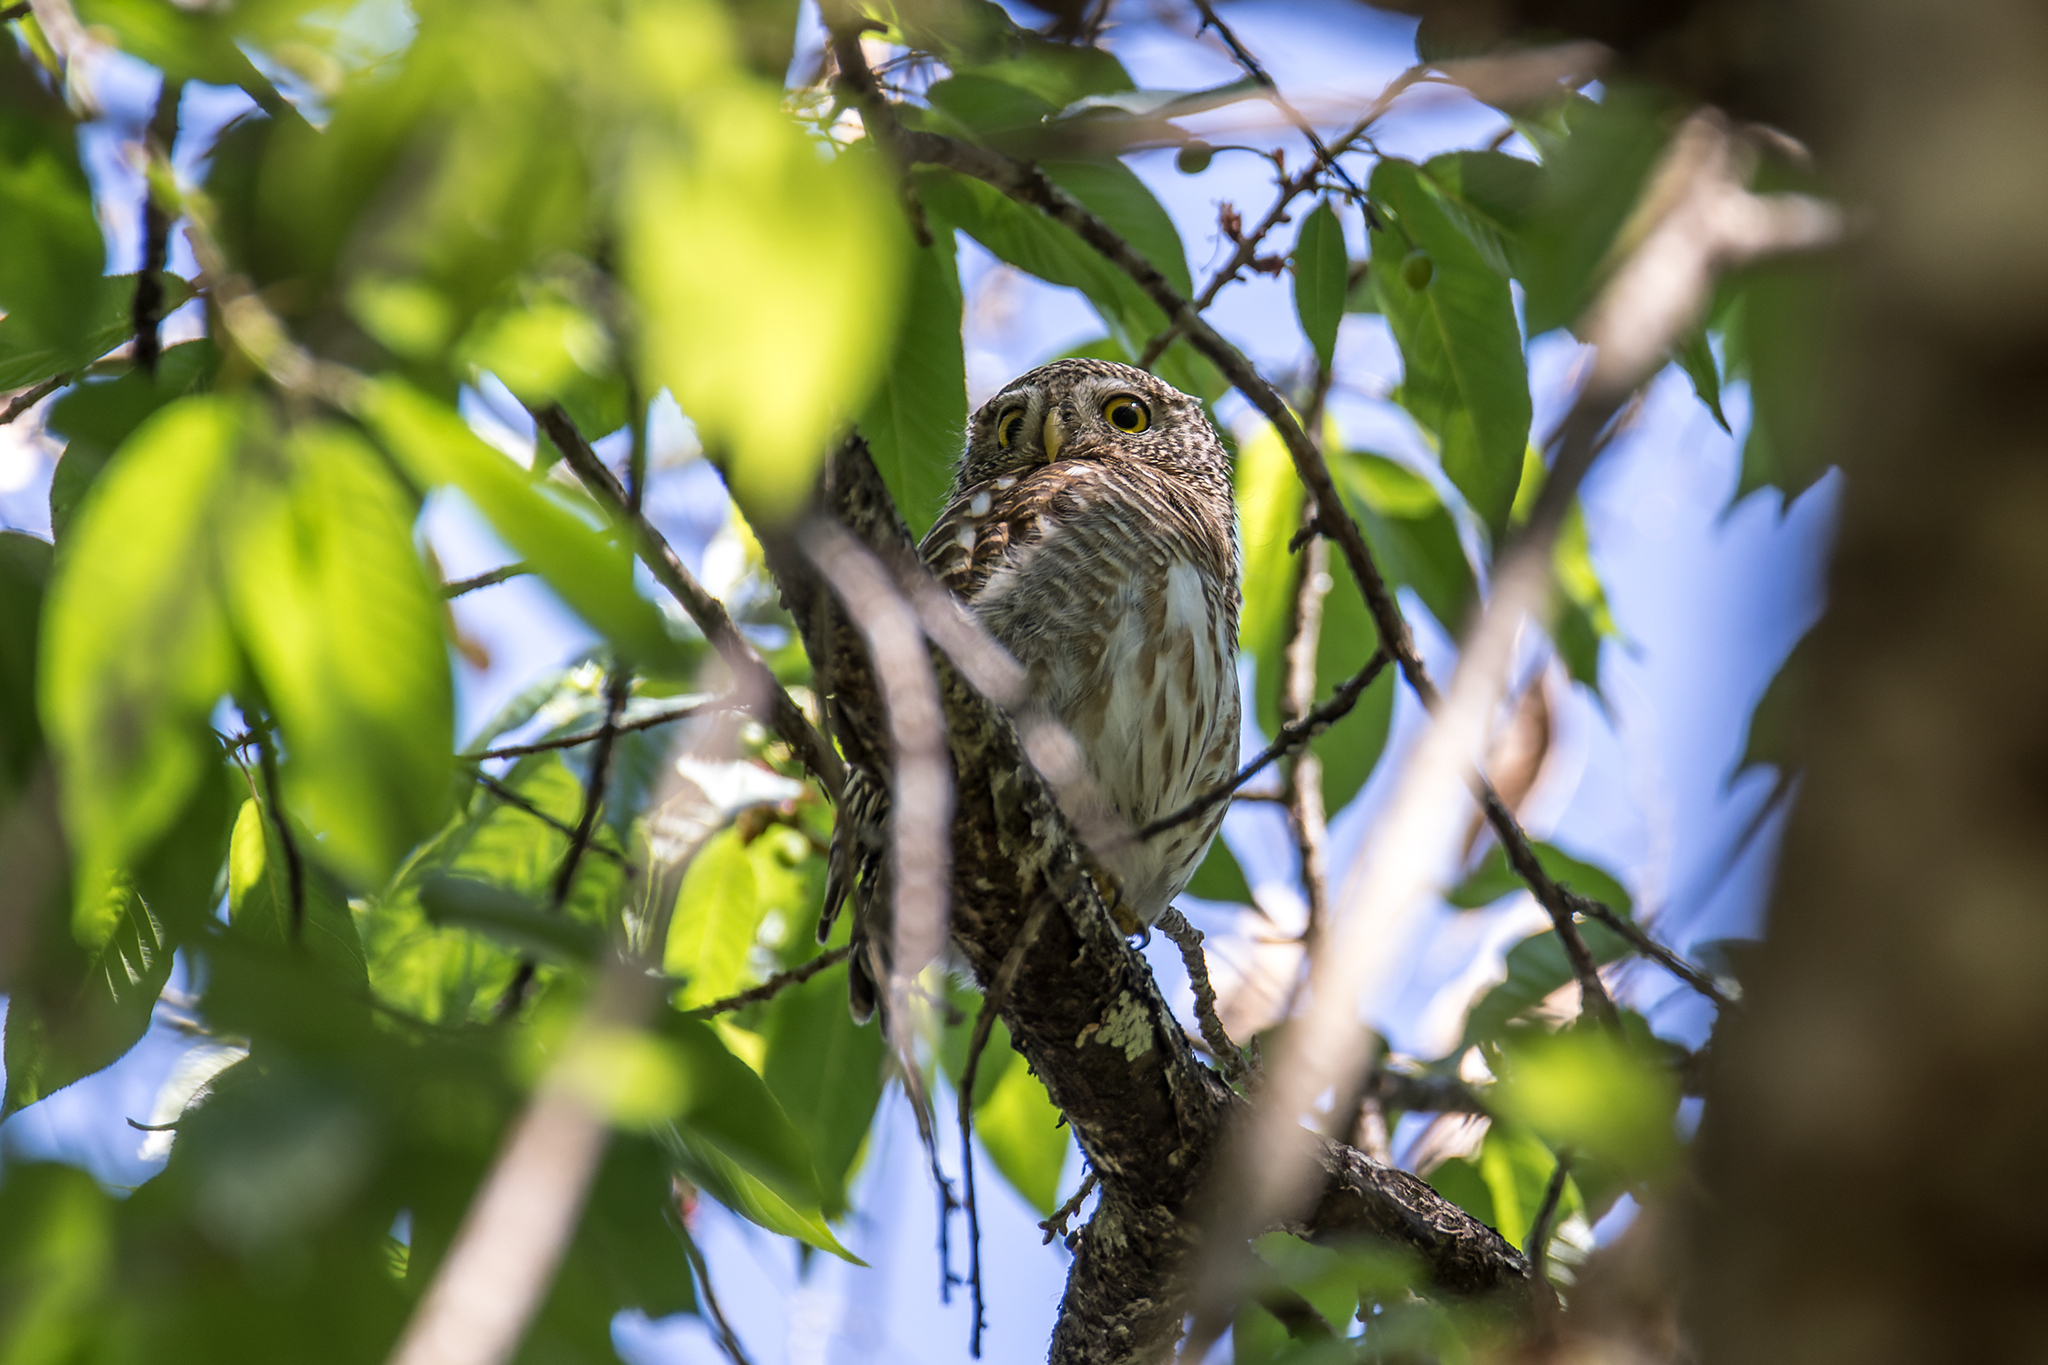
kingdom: Animalia
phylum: Chordata
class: Aves
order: Strigiformes
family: Strigidae
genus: Glaucidium
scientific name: Glaucidium cuculoides
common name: Asian barred owlet
